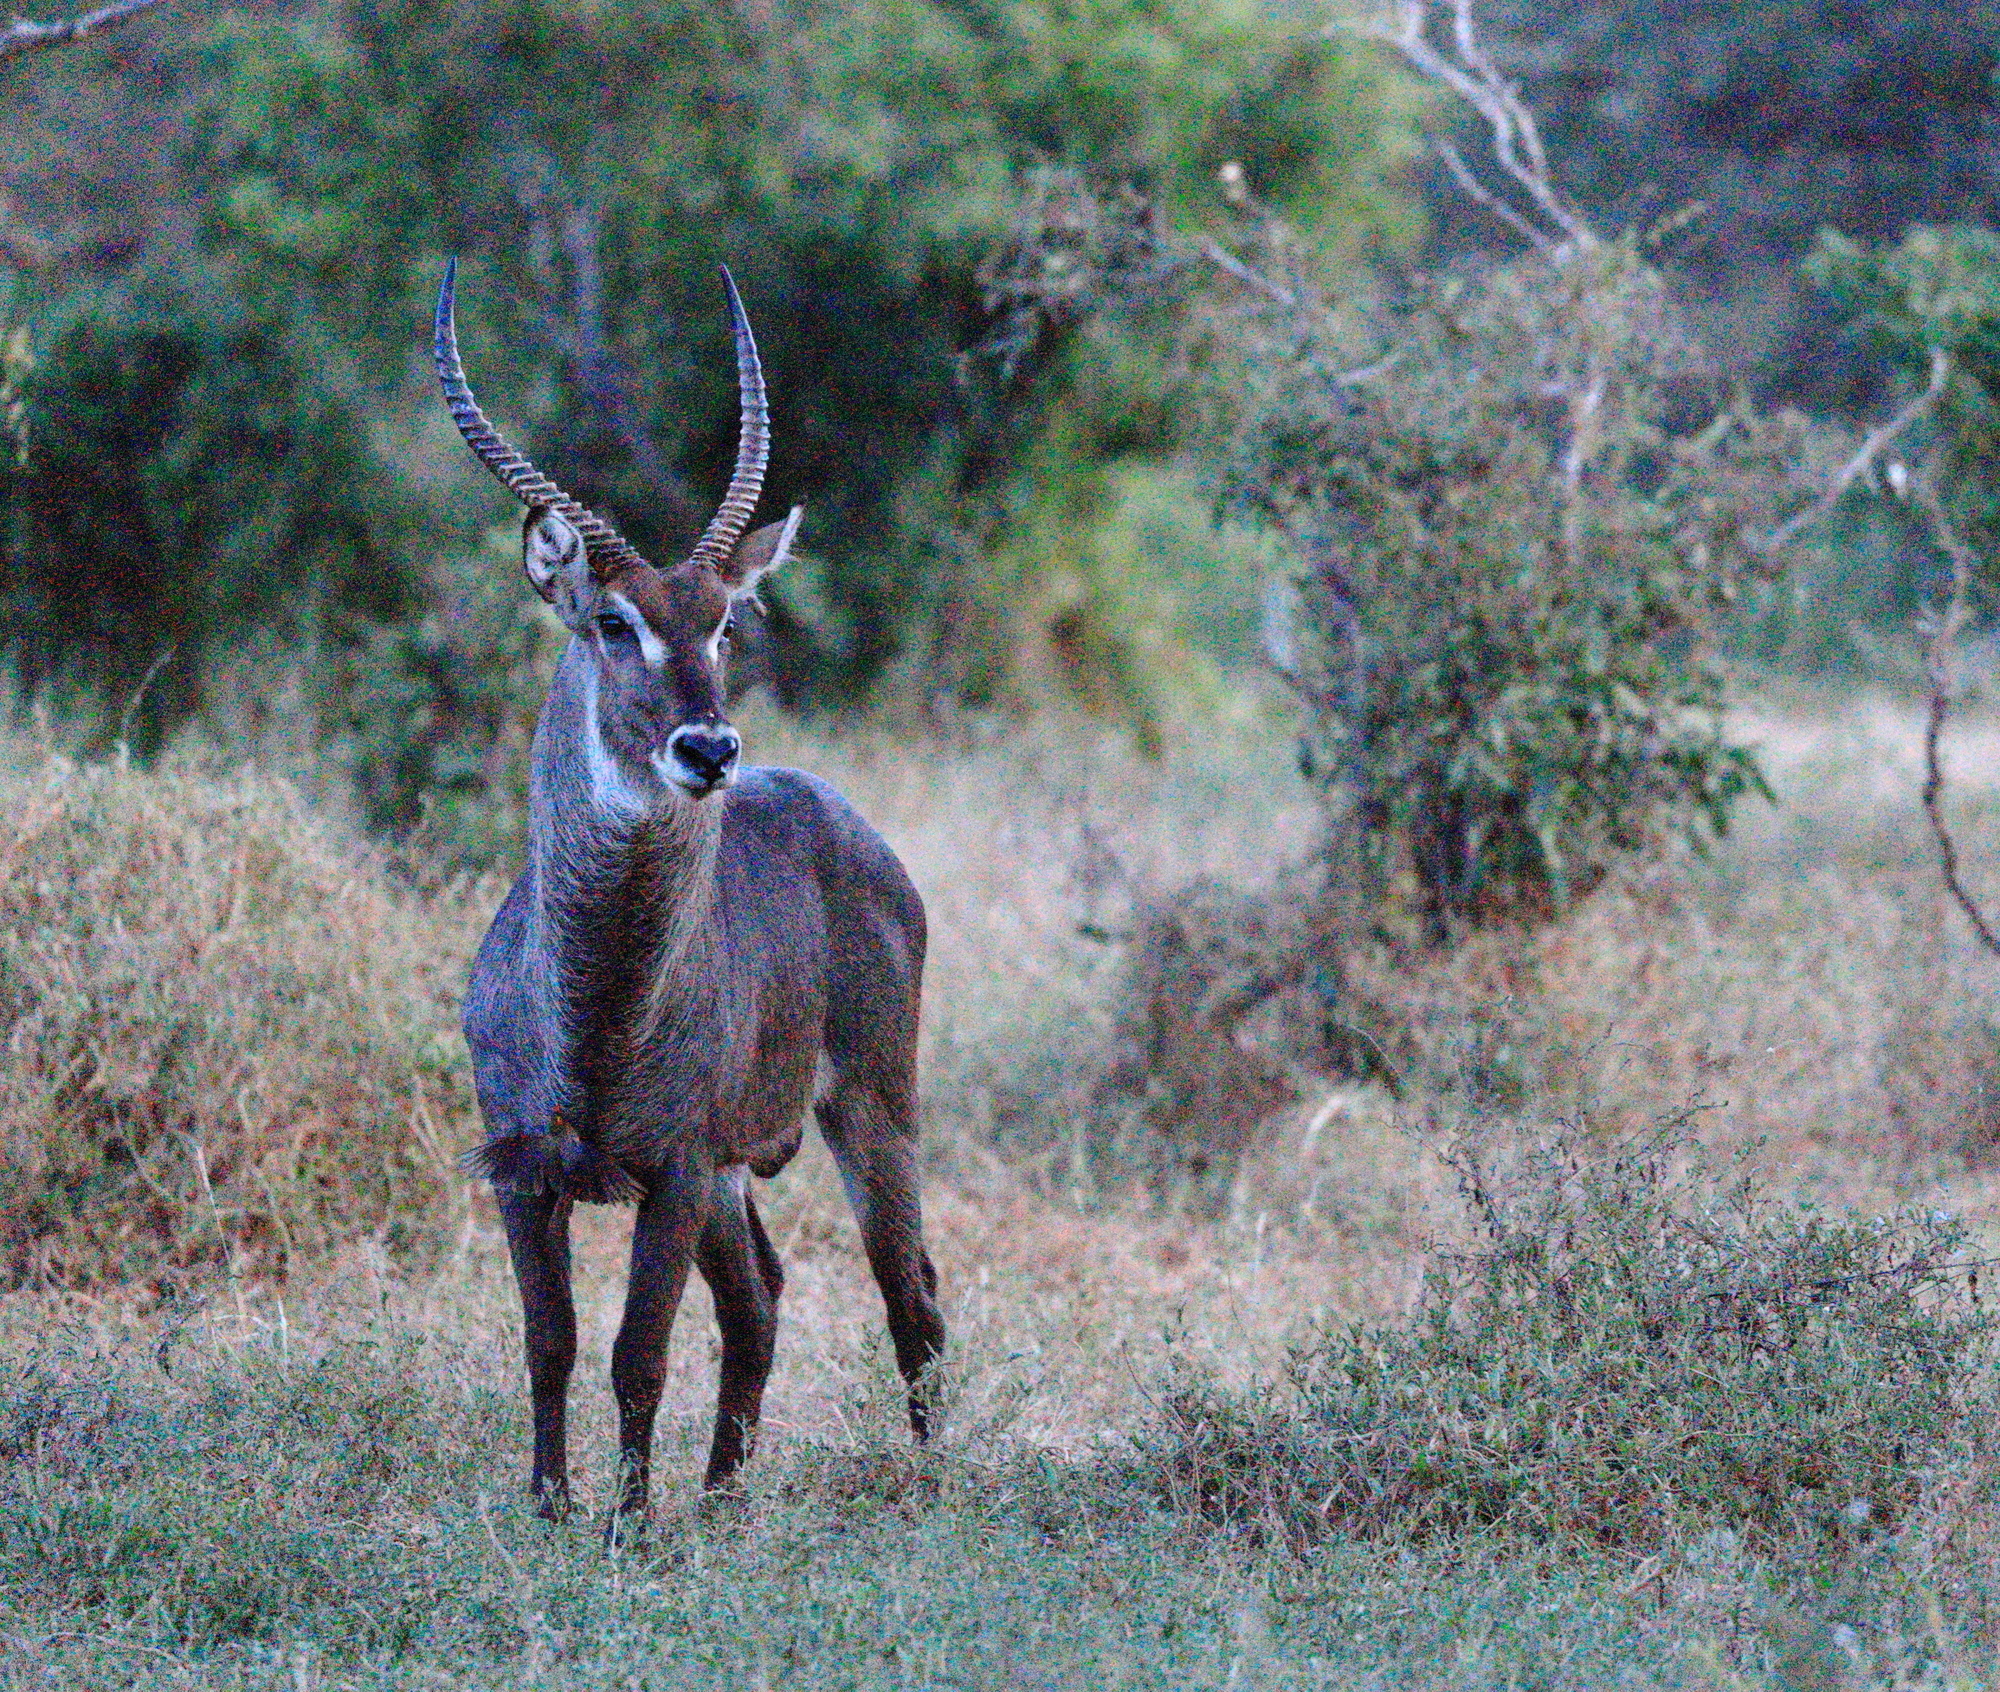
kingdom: Animalia
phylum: Chordata
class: Mammalia
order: Artiodactyla
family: Bovidae
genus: Kobus
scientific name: Kobus ellipsiprymnus
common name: Waterbuck
